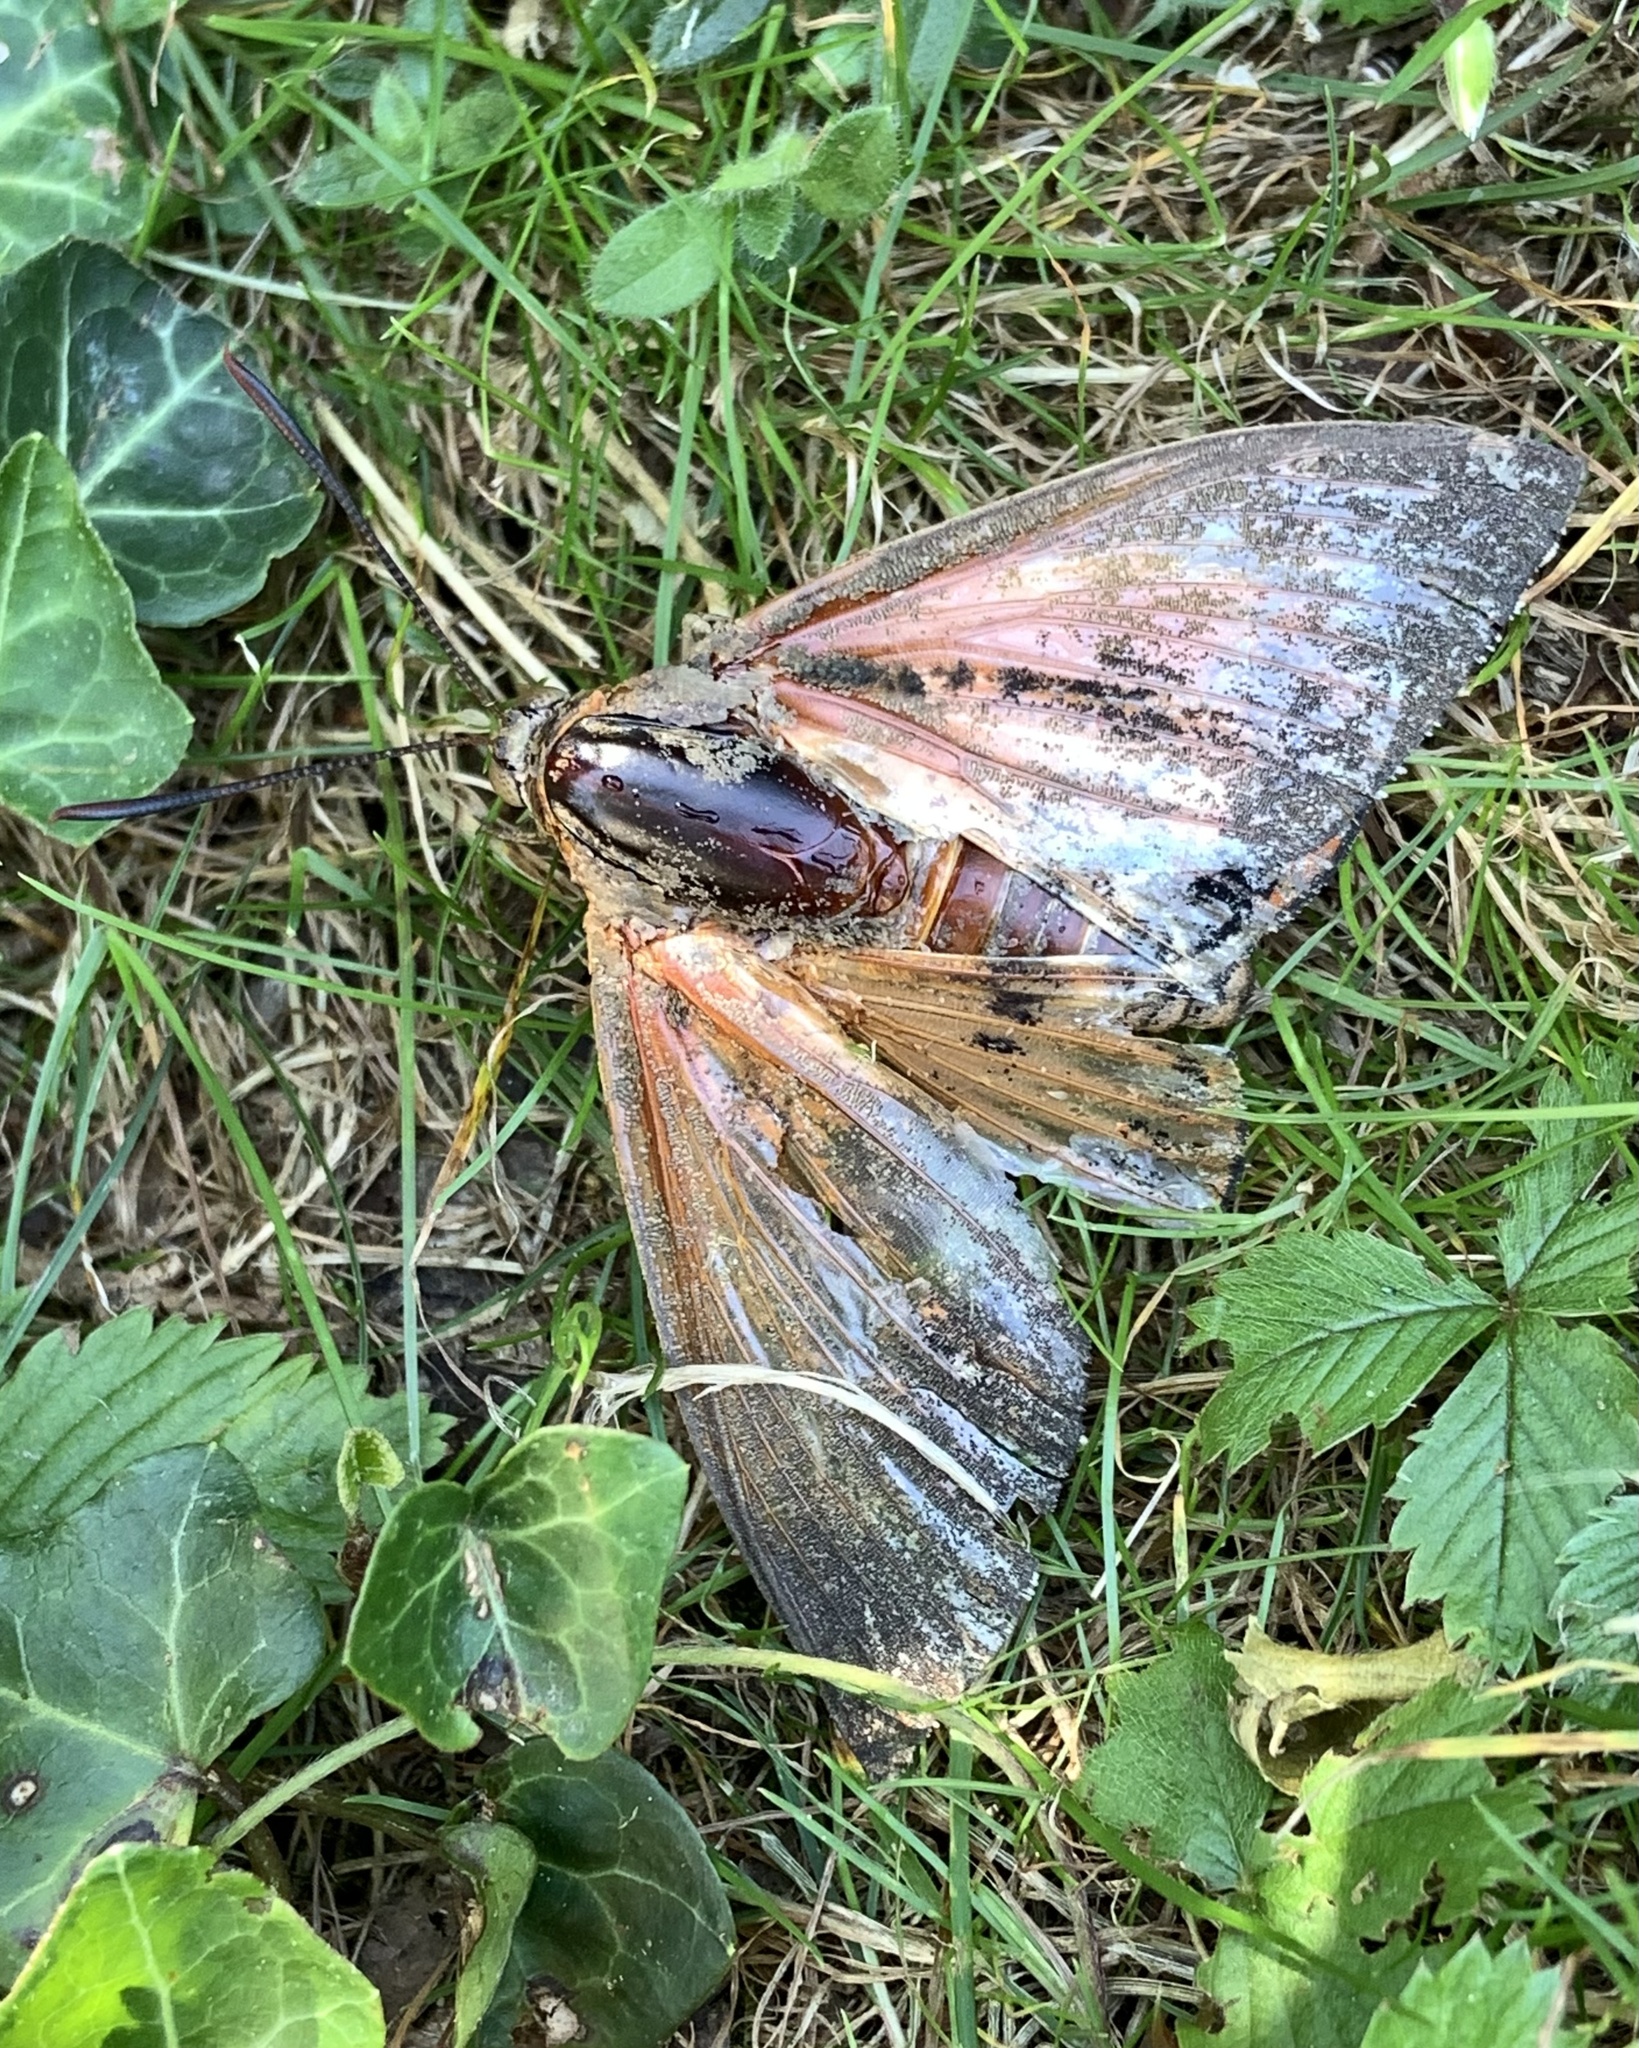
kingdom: Animalia
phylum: Arthropoda
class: Insecta
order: Lepidoptera
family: Castniidae
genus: Paysandisia
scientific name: Paysandisia archon
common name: Palm moth
